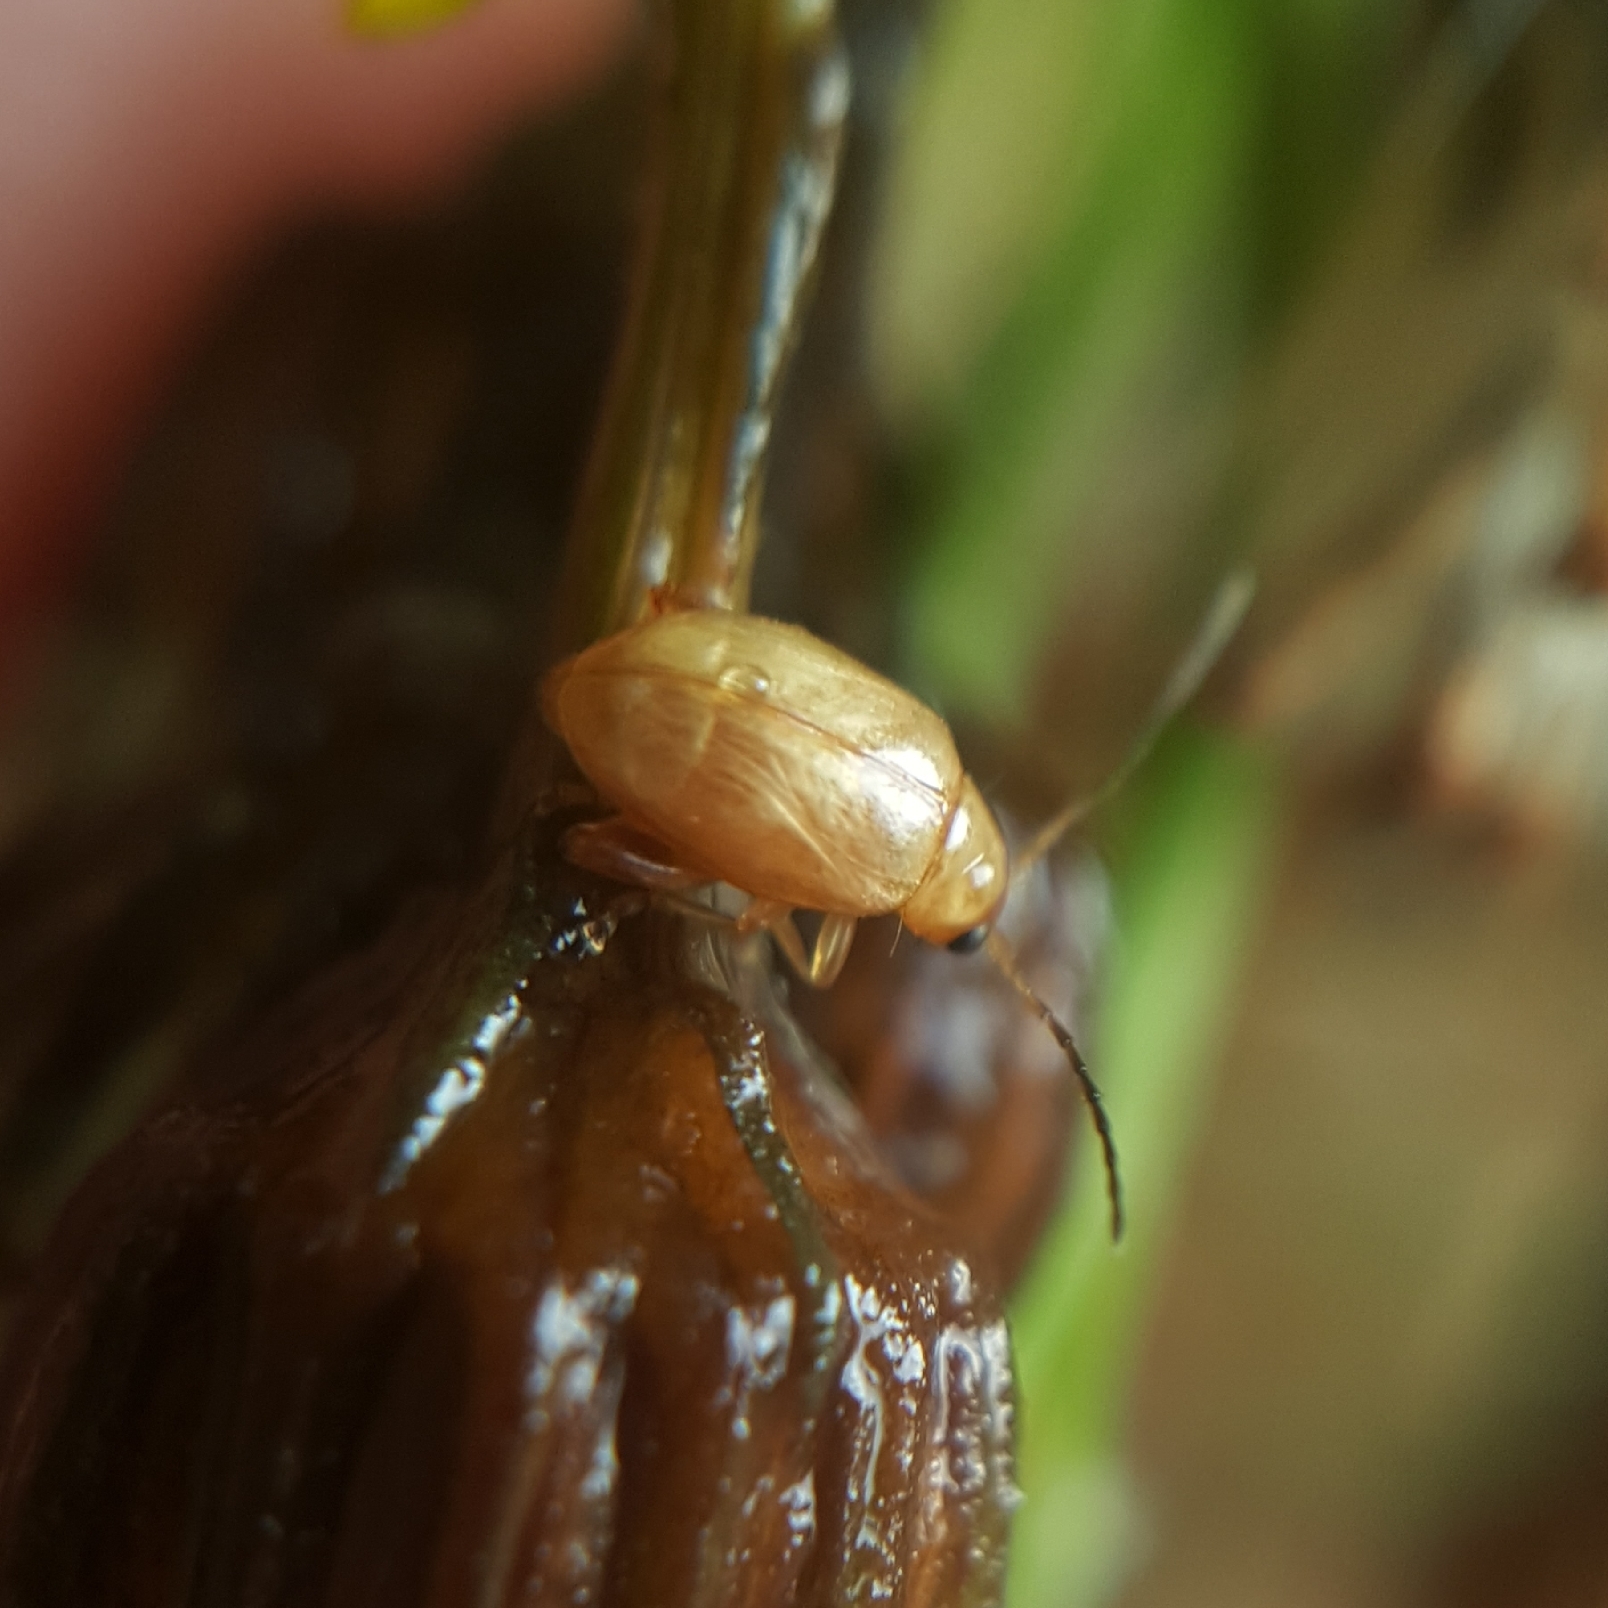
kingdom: Animalia
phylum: Arthropoda
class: Insecta
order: Coleoptera
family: Chrysomelidae
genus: Longitarsus
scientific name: Longitarsus jacobaeae
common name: Tansy ragwort flea beetle
